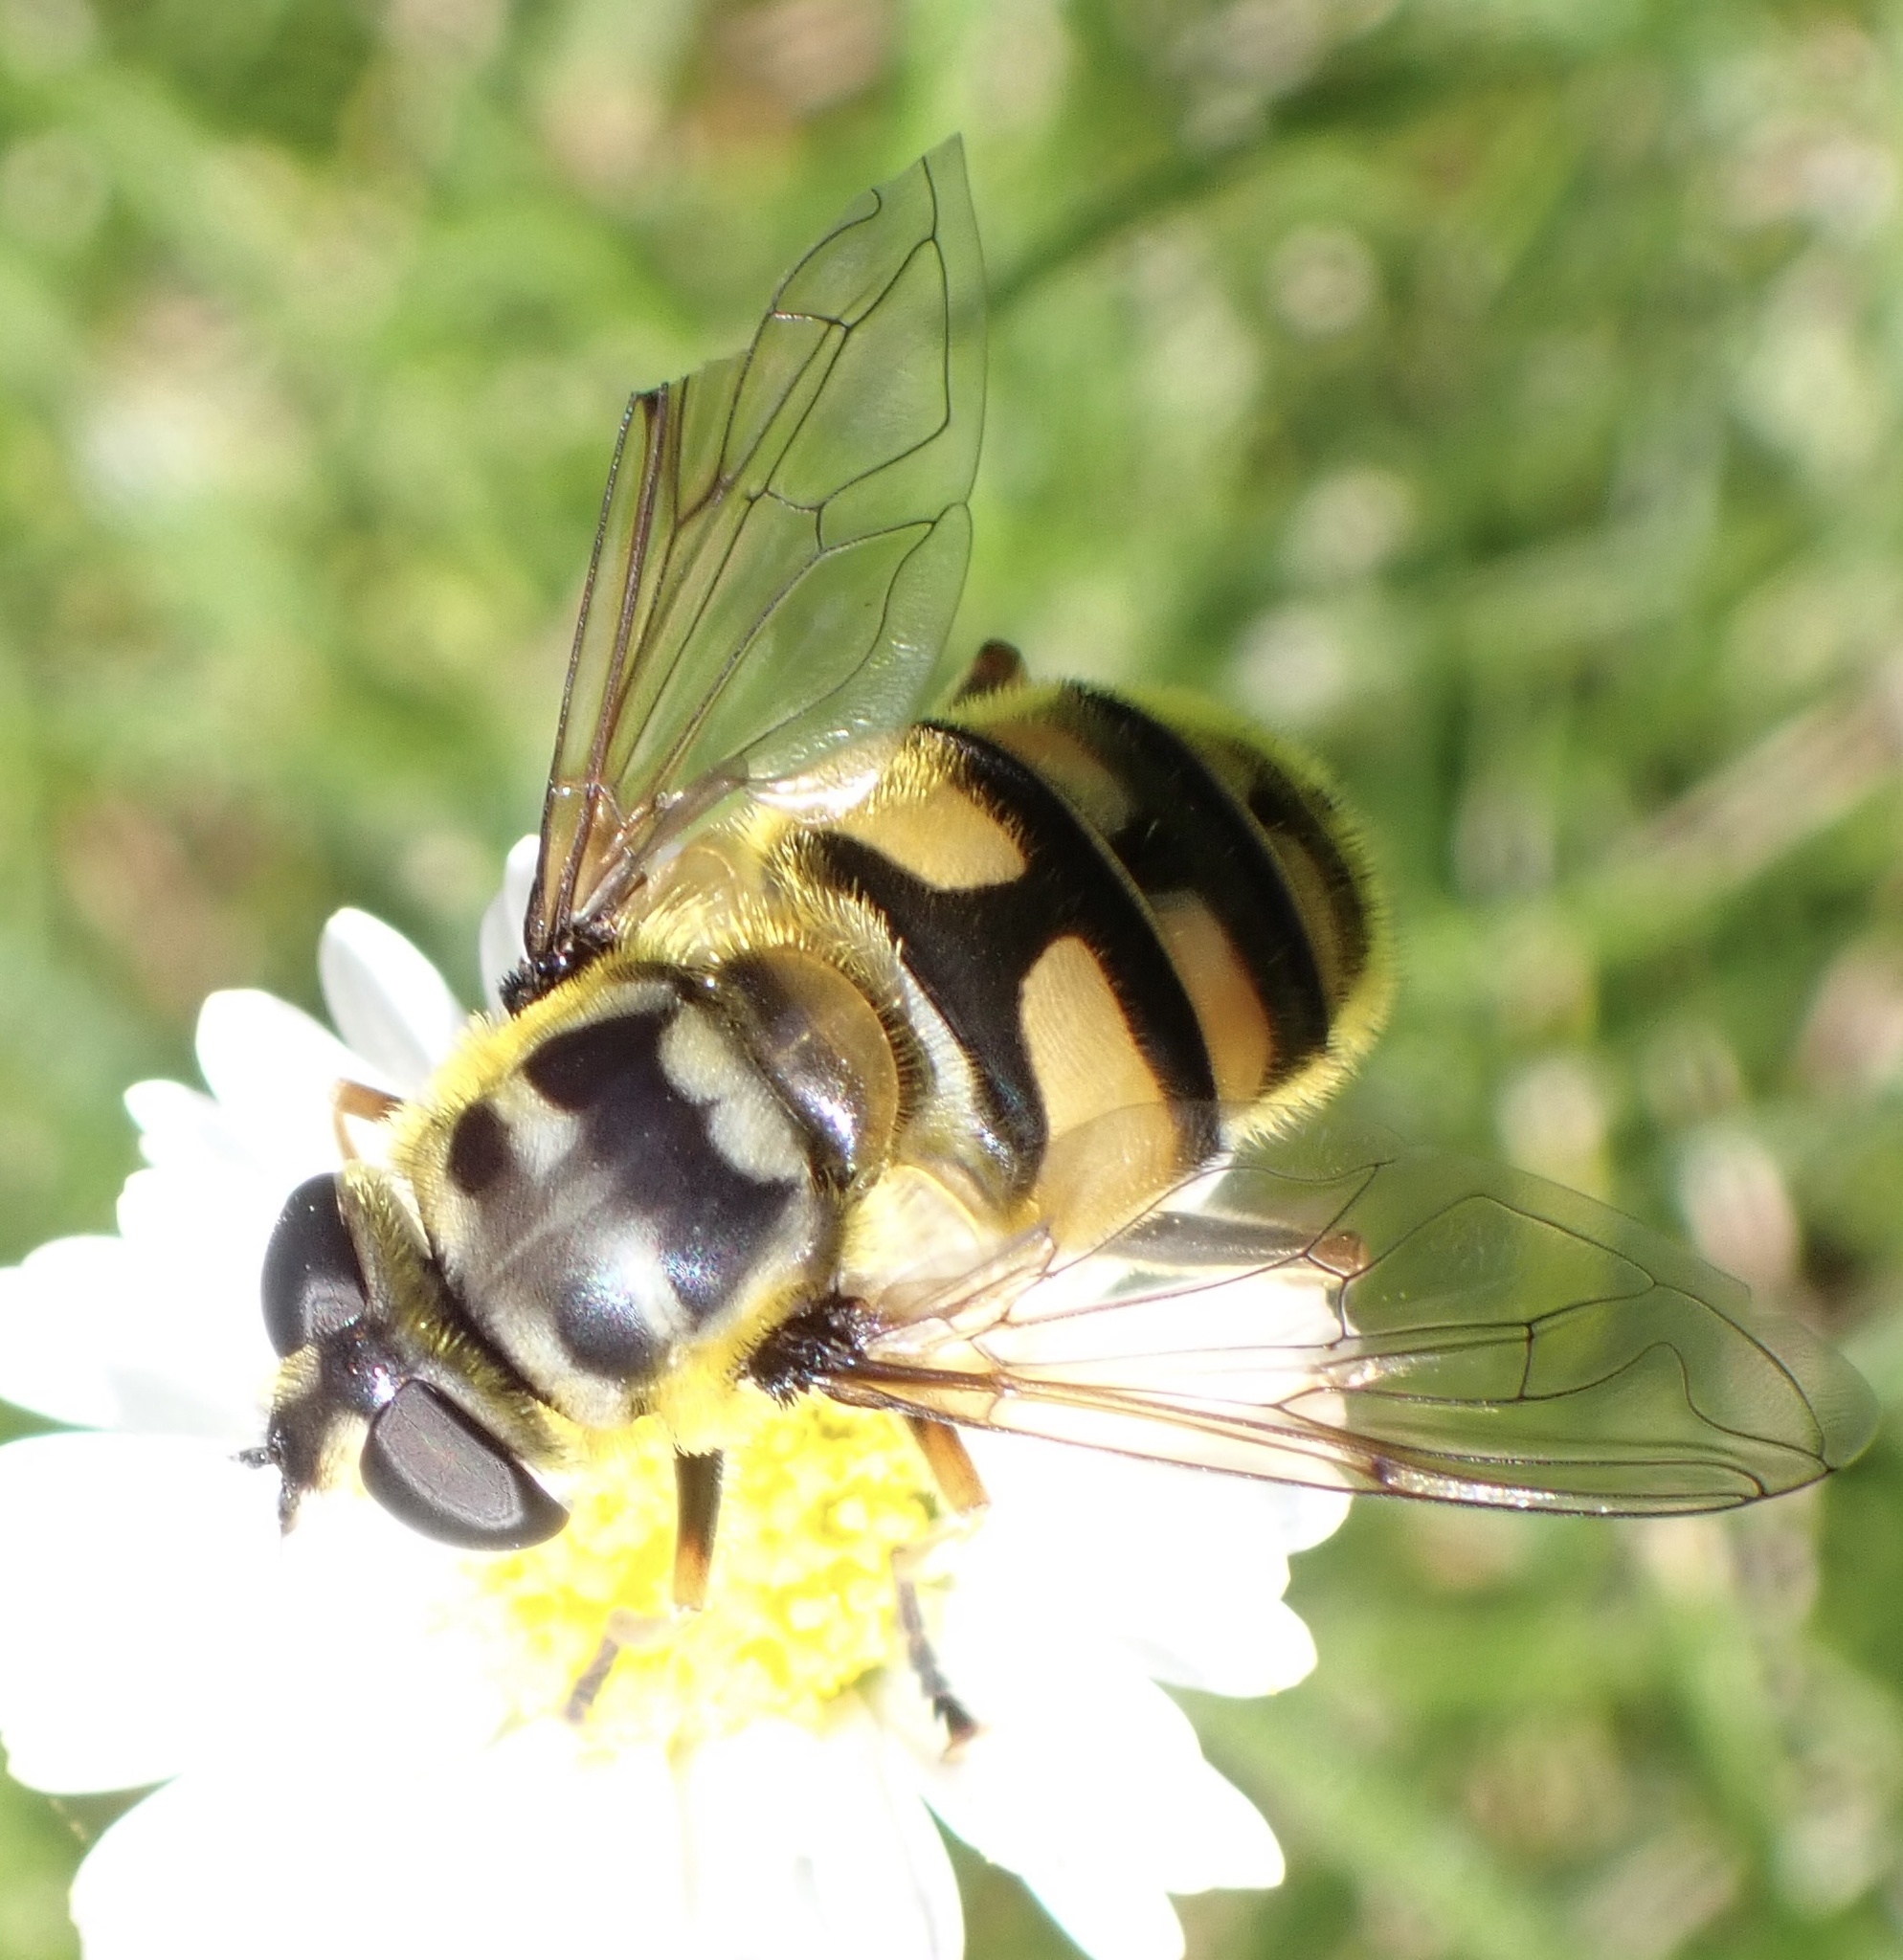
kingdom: Animalia
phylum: Arthropoda
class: Insecta
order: Diptera
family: Syrphidae
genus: Myathropa
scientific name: Myathropa florea
